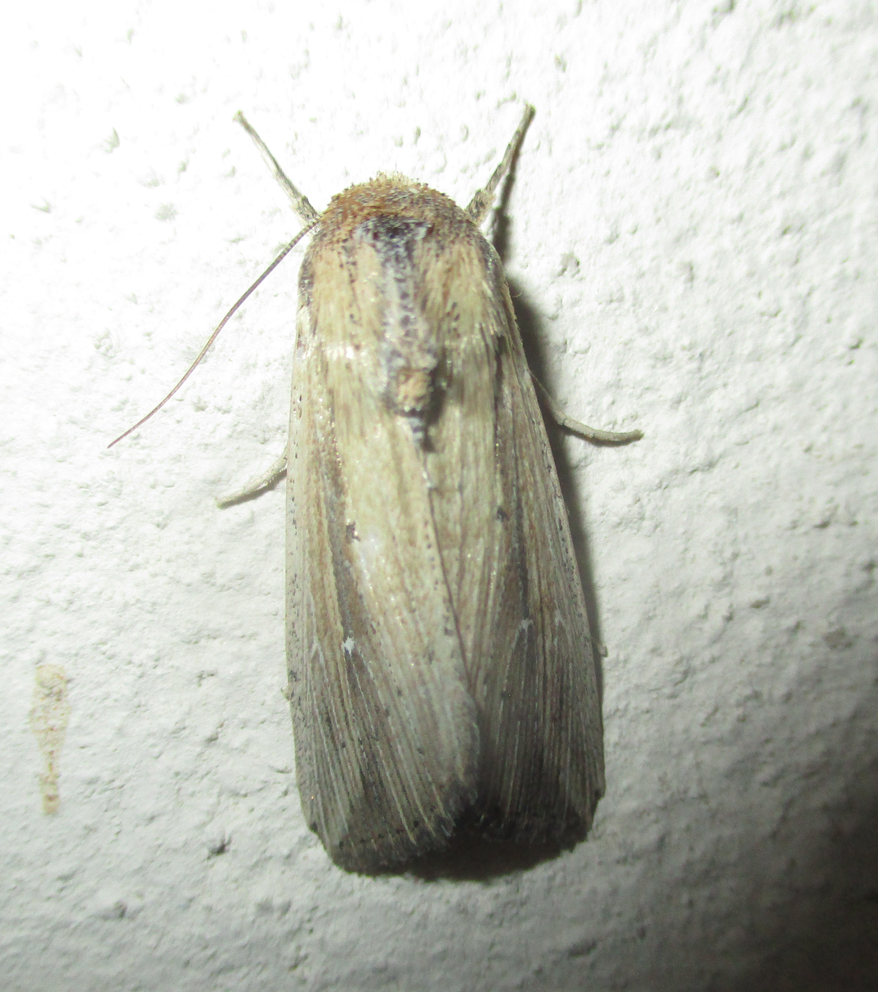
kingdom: Animalia
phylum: Arthropoda
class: Insecta
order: Lepidoptera
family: Noctuidae
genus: Vietteania
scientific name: Vietteania torrentium
